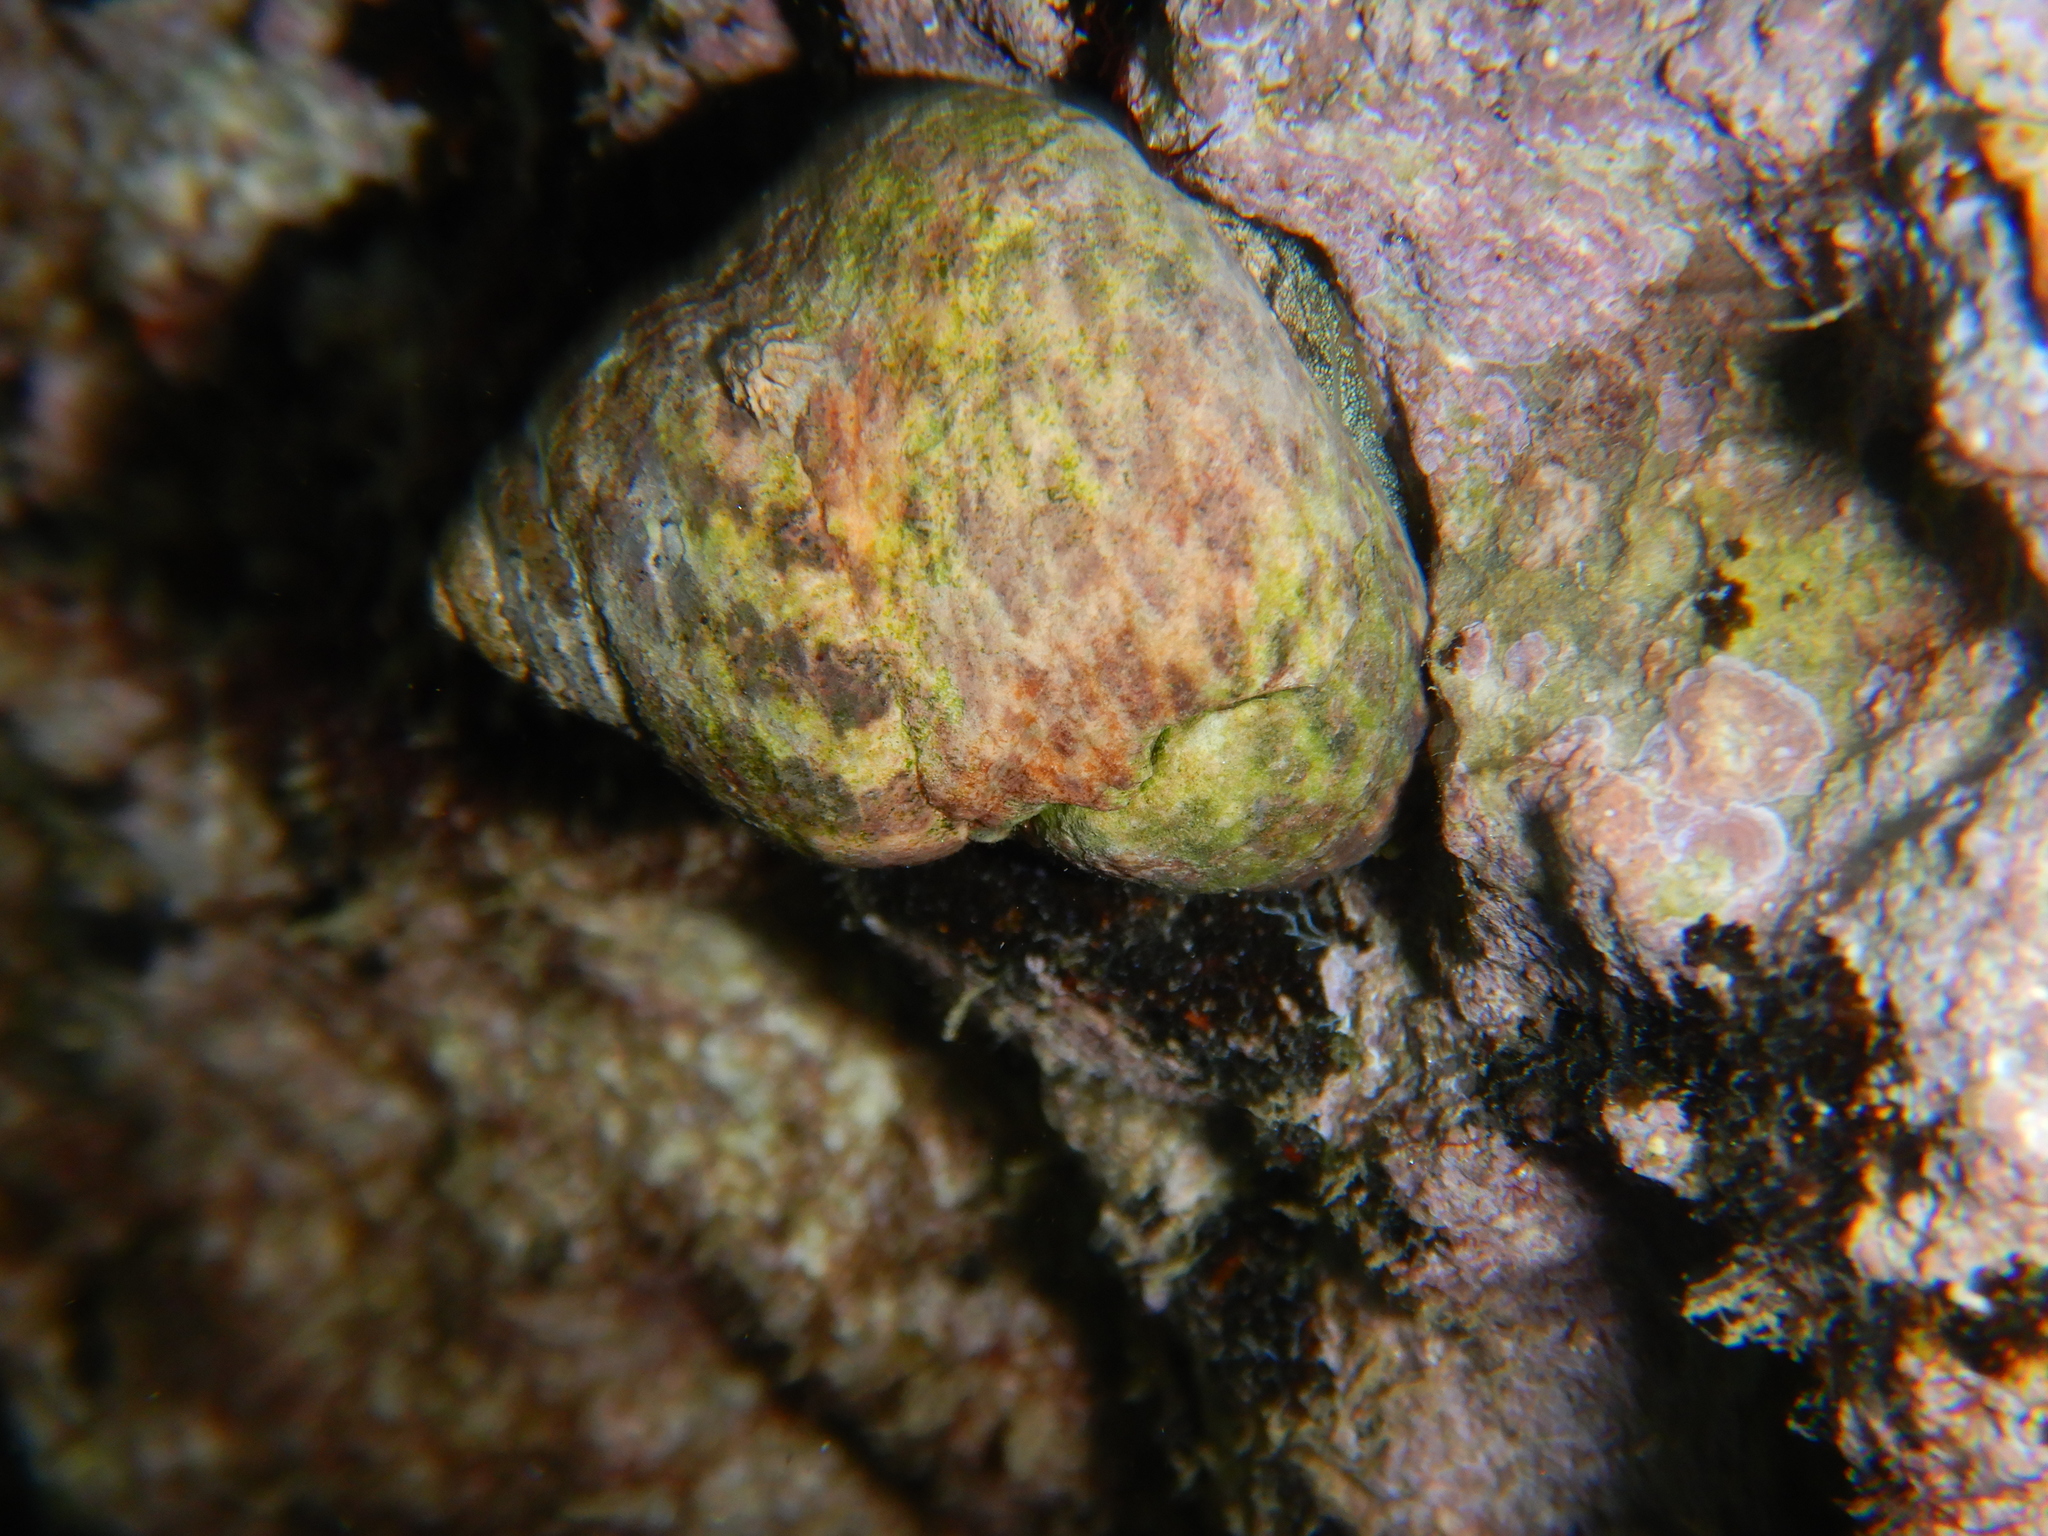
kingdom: Animalia
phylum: Mollusca
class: Gastropoda
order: Trochida
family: Trochidae
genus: Phorcus
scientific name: Phorcus turbinatus
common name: Turbinate monodont
